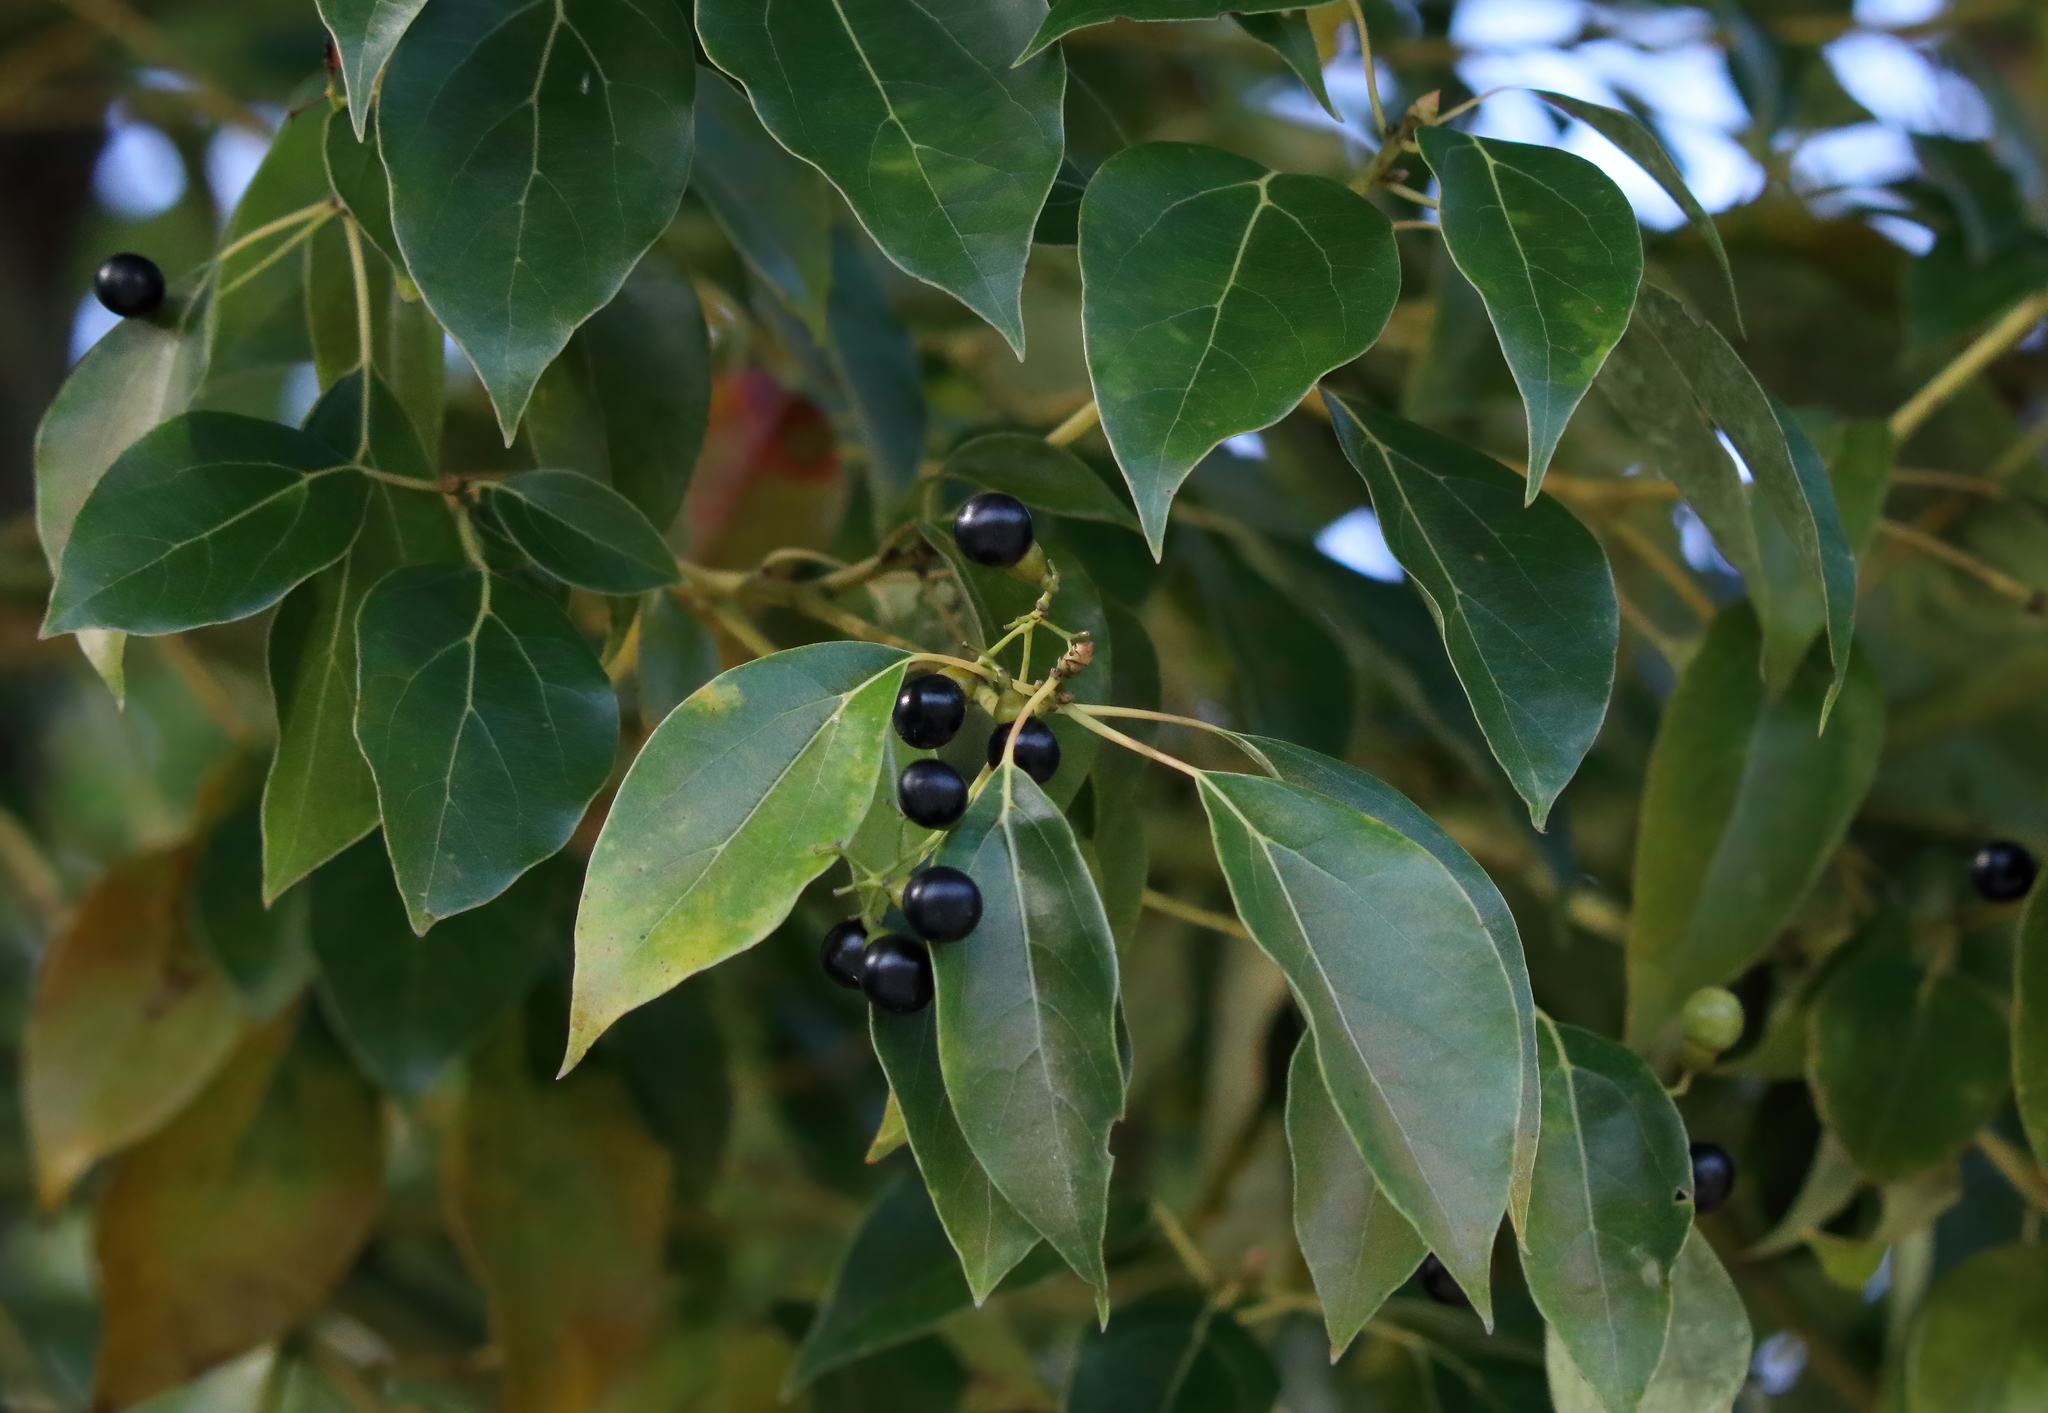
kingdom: Plantae
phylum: Tracheophyta
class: Magnoliopsida
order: Laurales
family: Lauraceae
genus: Cinnamomum
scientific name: Cinnamomum camphora
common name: Camphortree
